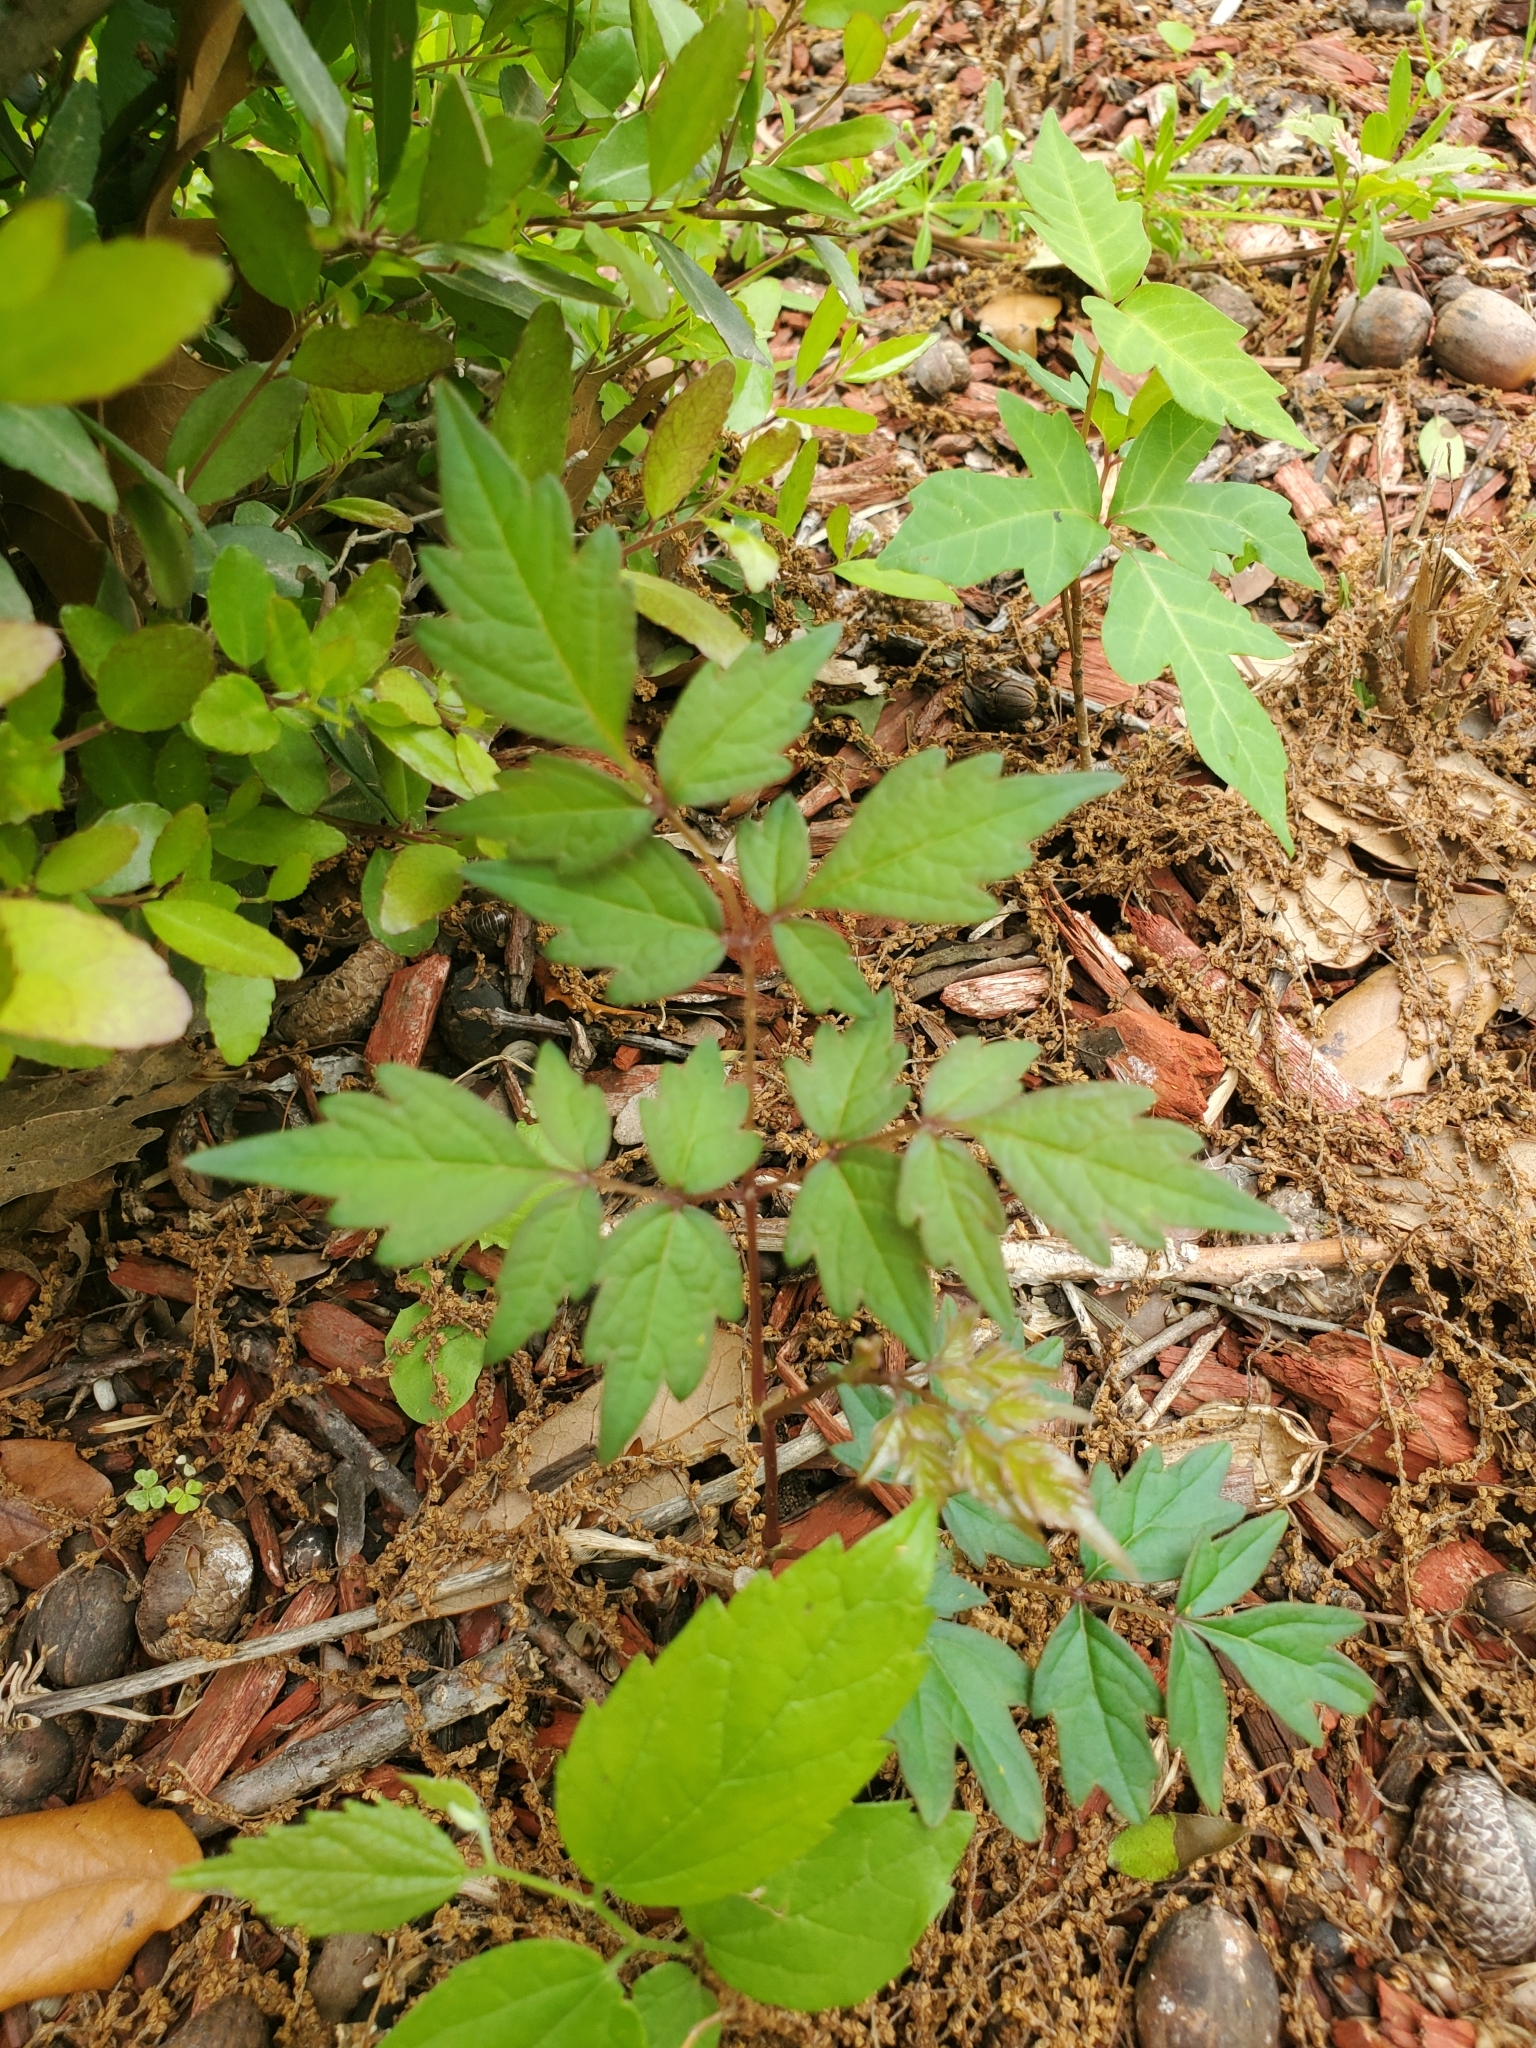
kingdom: Plantae
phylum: Tracheophyta
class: Magnoliopsida
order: Vitales
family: Vitaceae
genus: Nekemias
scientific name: Nekemias arborea
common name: Peppervine
